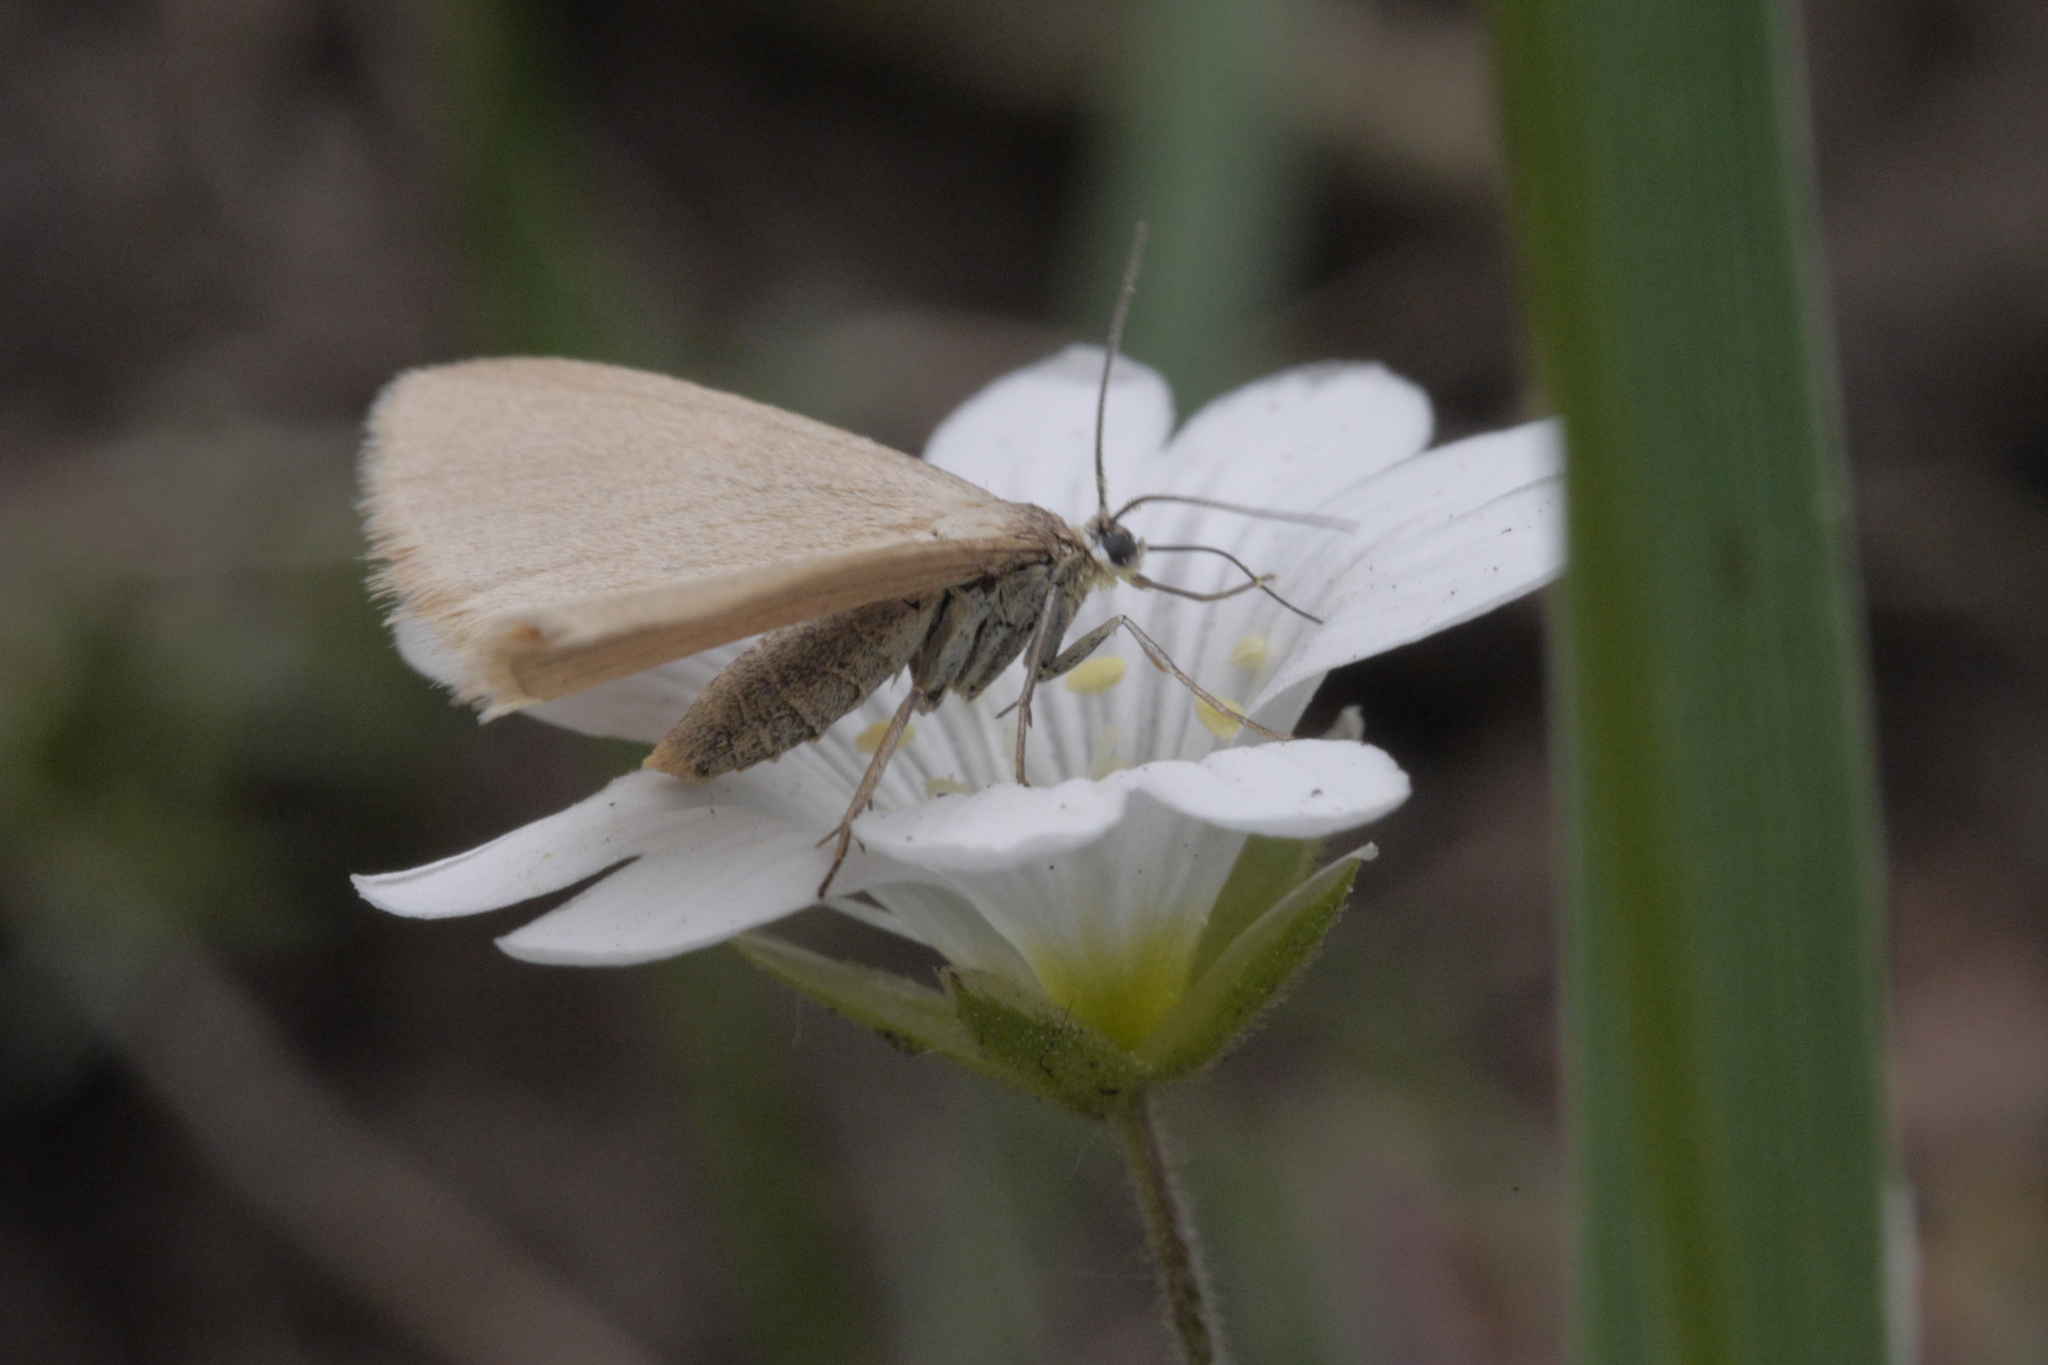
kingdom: Animalia
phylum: Arthropoda
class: Insecta
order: Lepidoptera
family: Geometridae
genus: Minoa
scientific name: Minoa murinata
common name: Drab looper
